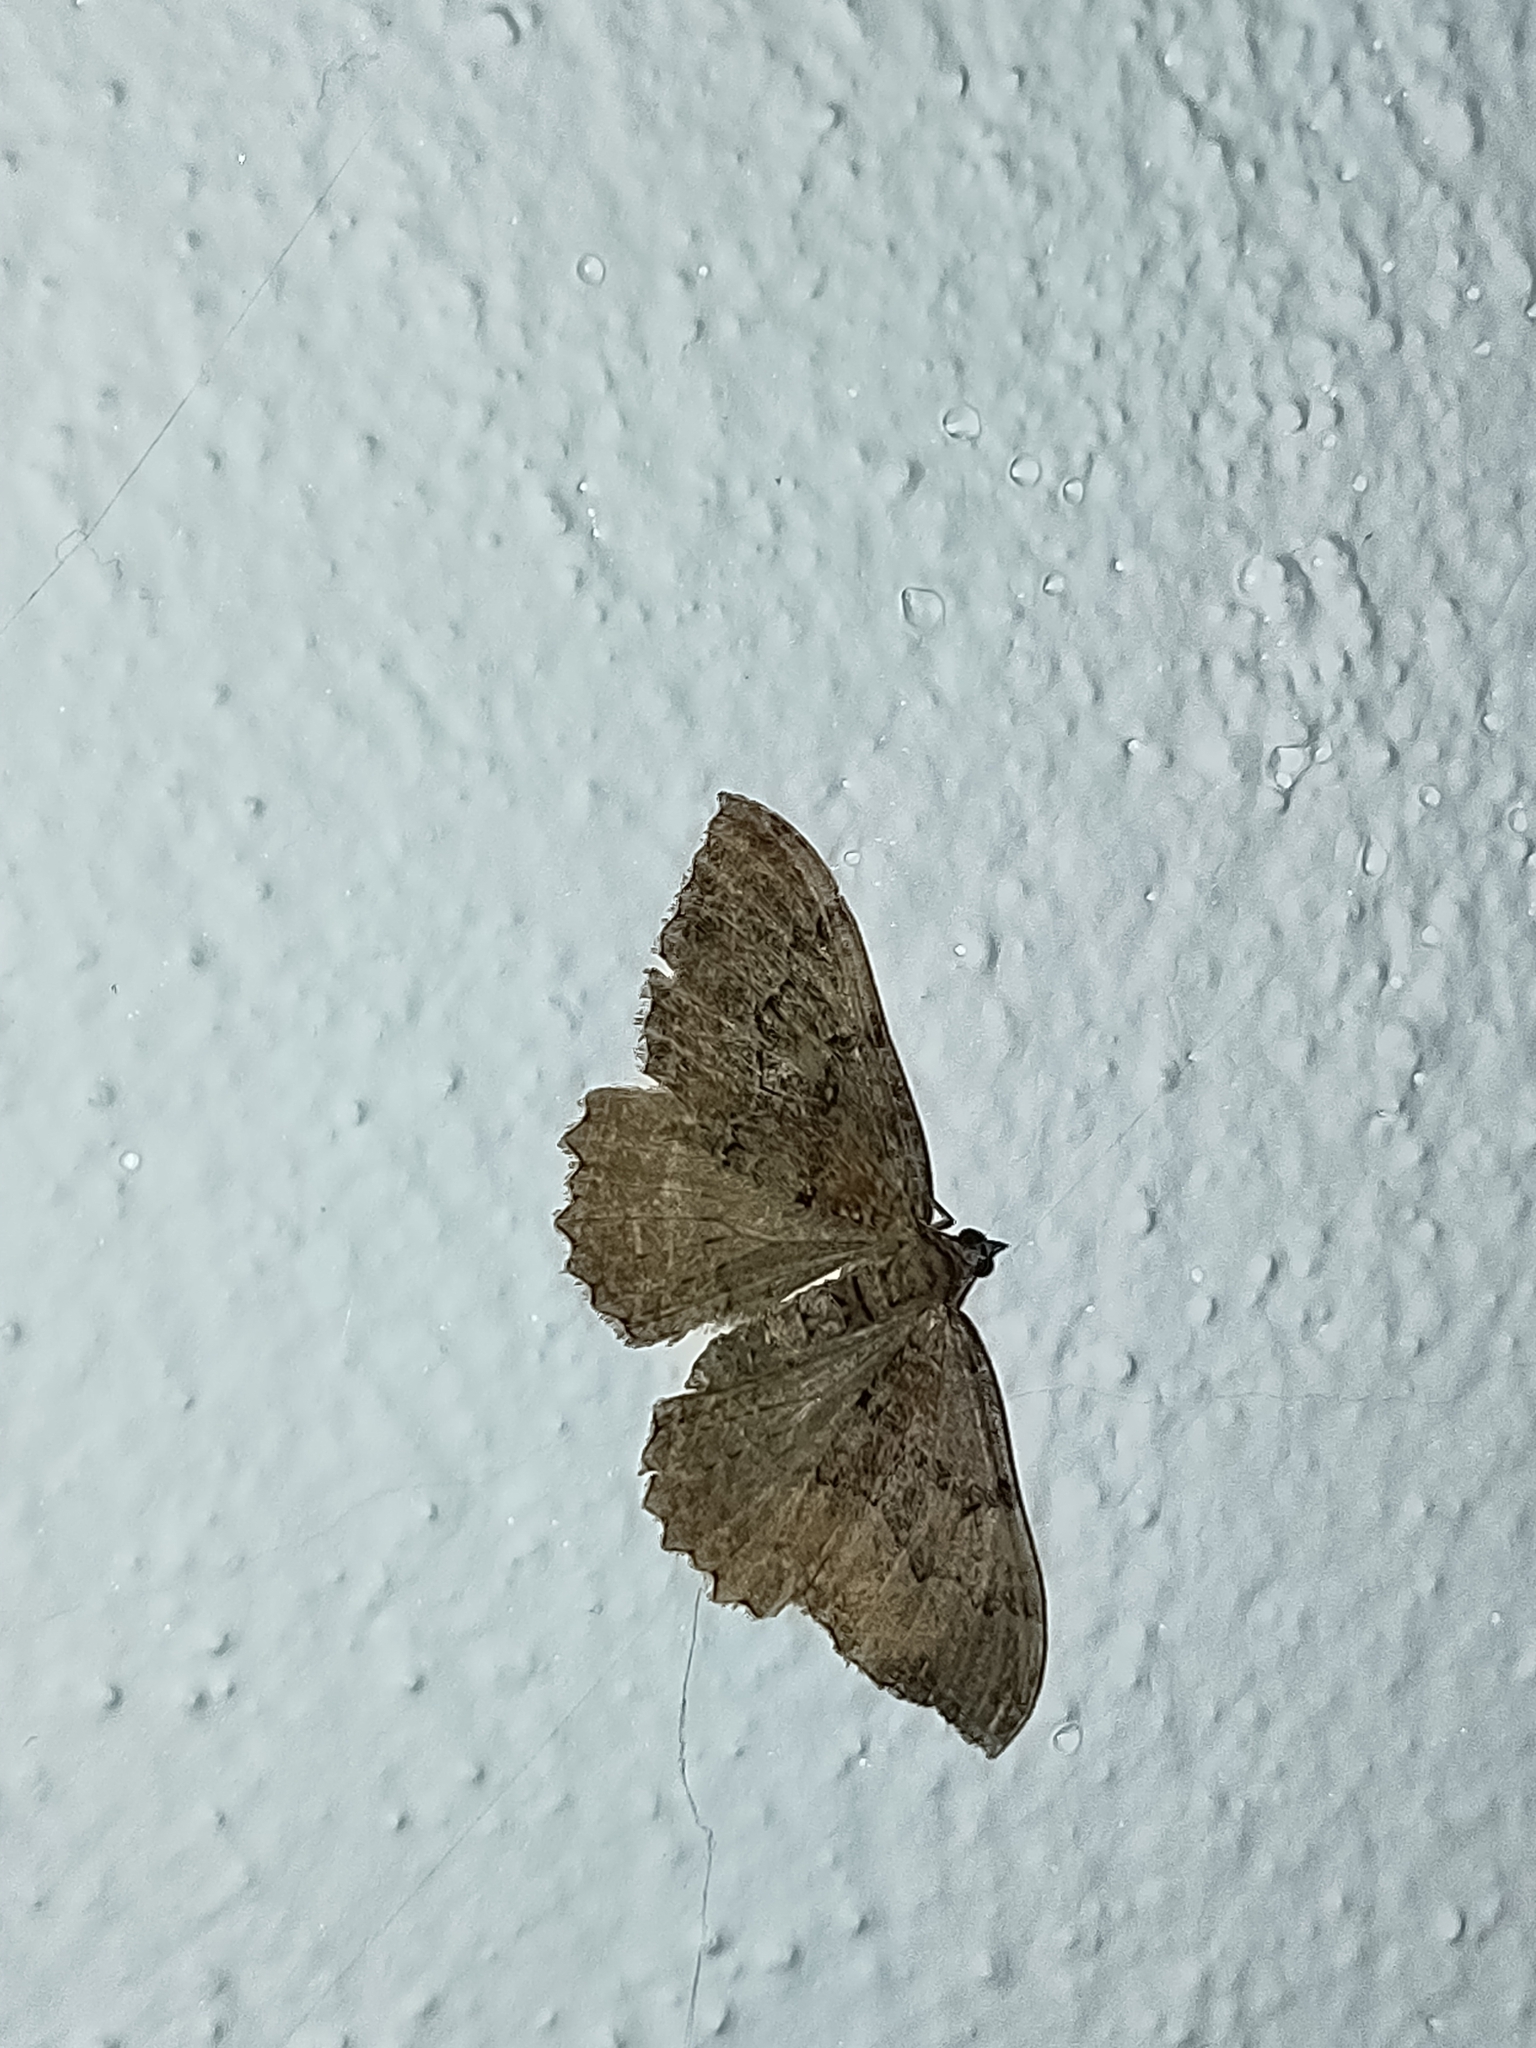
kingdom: Animalia
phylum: Arthropoda
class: Insecta
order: Lepidoptera
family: Geometridae
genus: Rheumaptera
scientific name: Rheumaptera Hydria cervinalis
